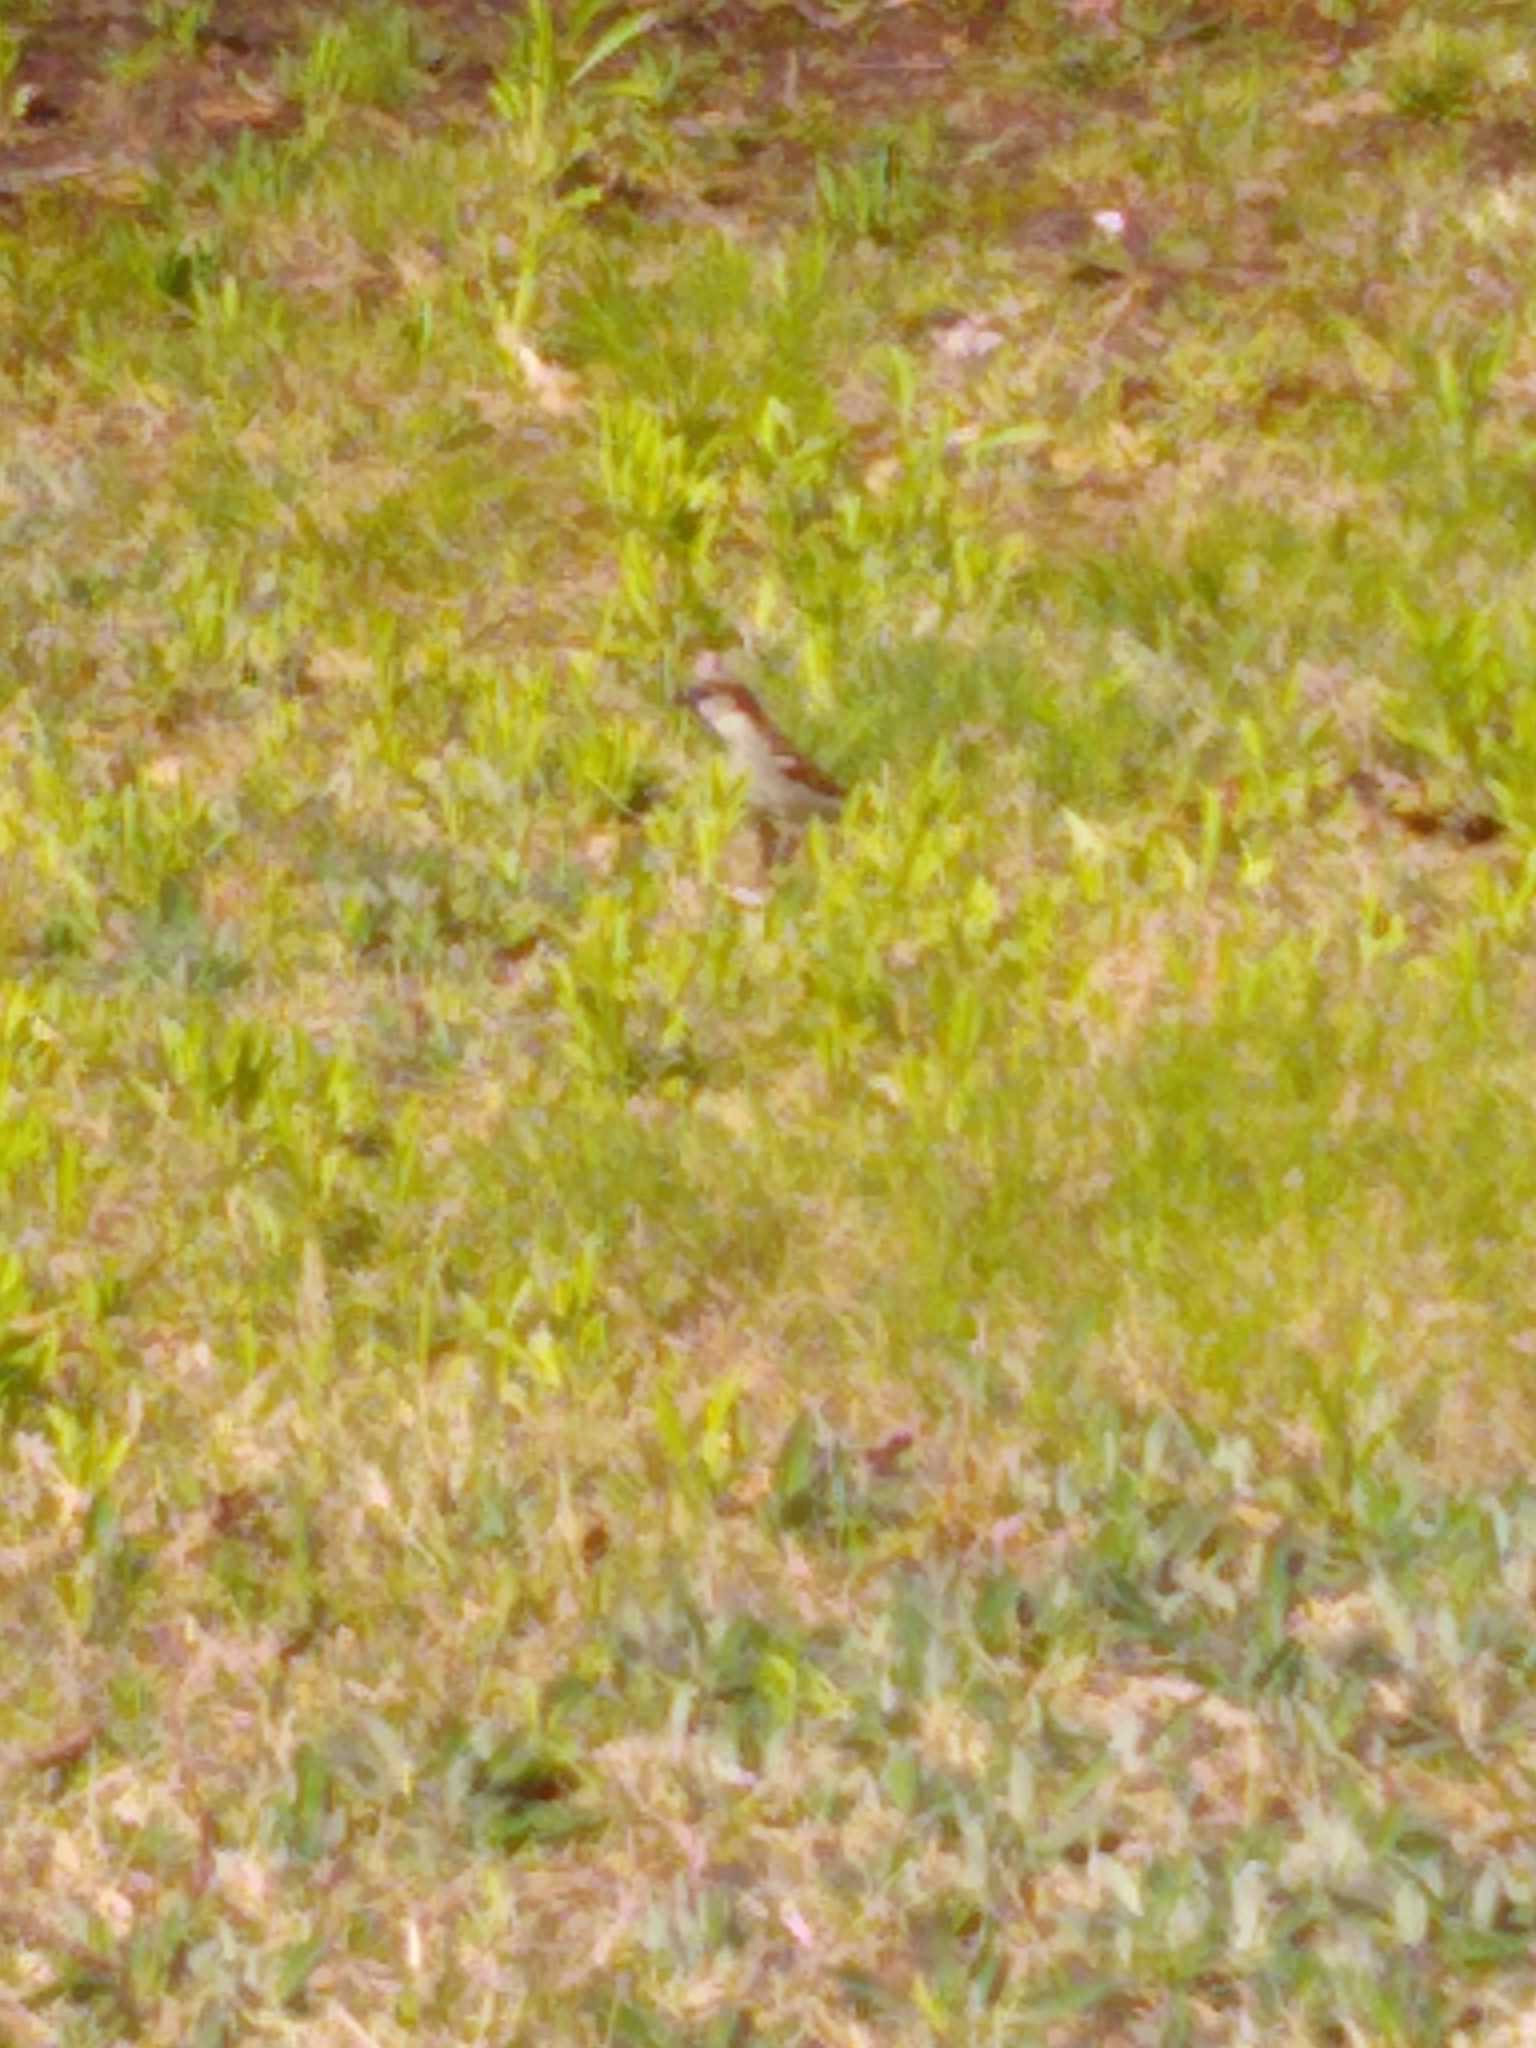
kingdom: Animalia
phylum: Chordata
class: Aves
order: Passeriformes
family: Passeridae
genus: Passer
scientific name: Passer domesticus
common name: House sparrow
